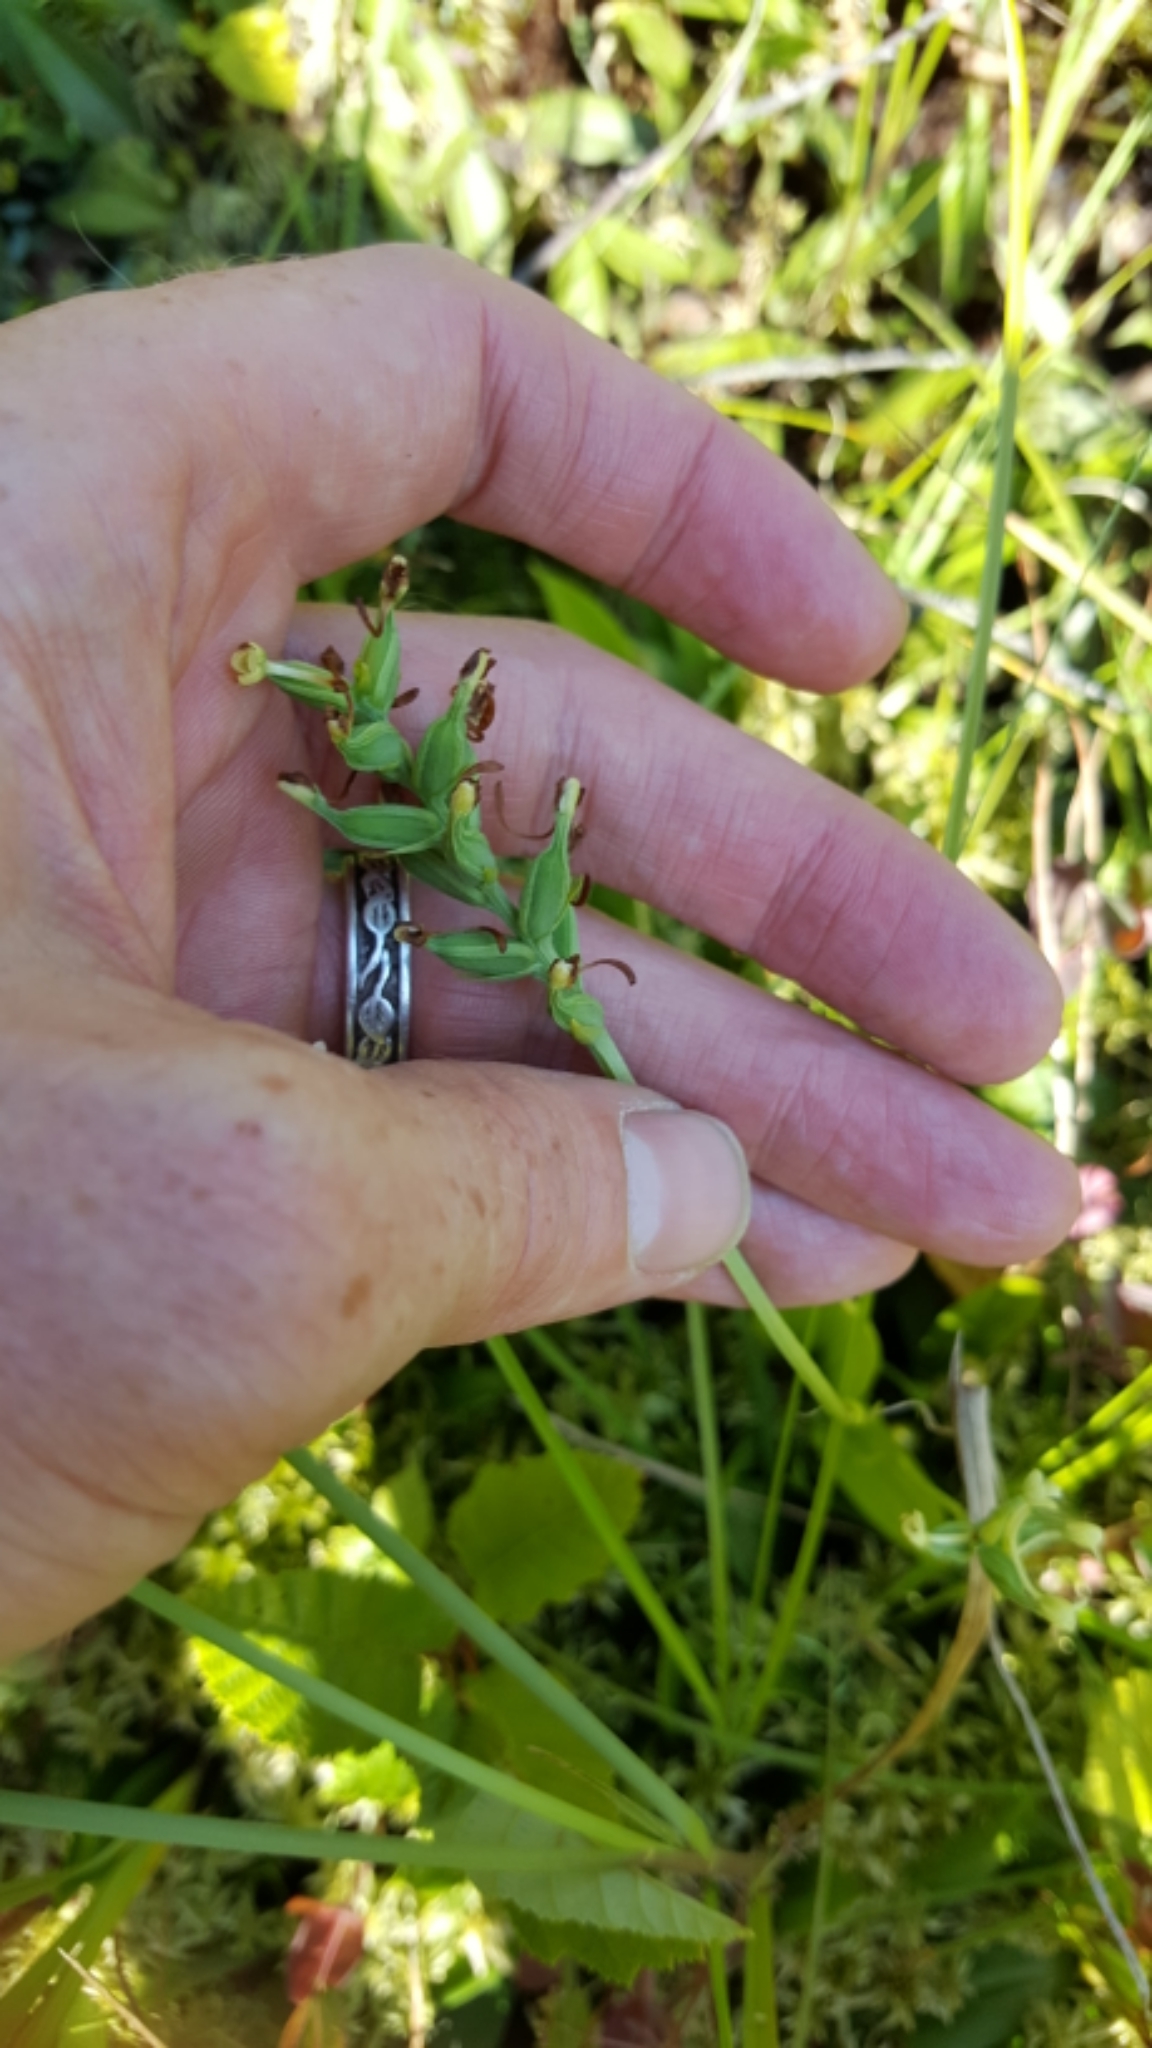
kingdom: Plantae
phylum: Tracheophyta
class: Liliopsida
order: Asparagales
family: Orchidaceae
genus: Platanthera
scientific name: Platanthera clavellata
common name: Club-spur orchid
